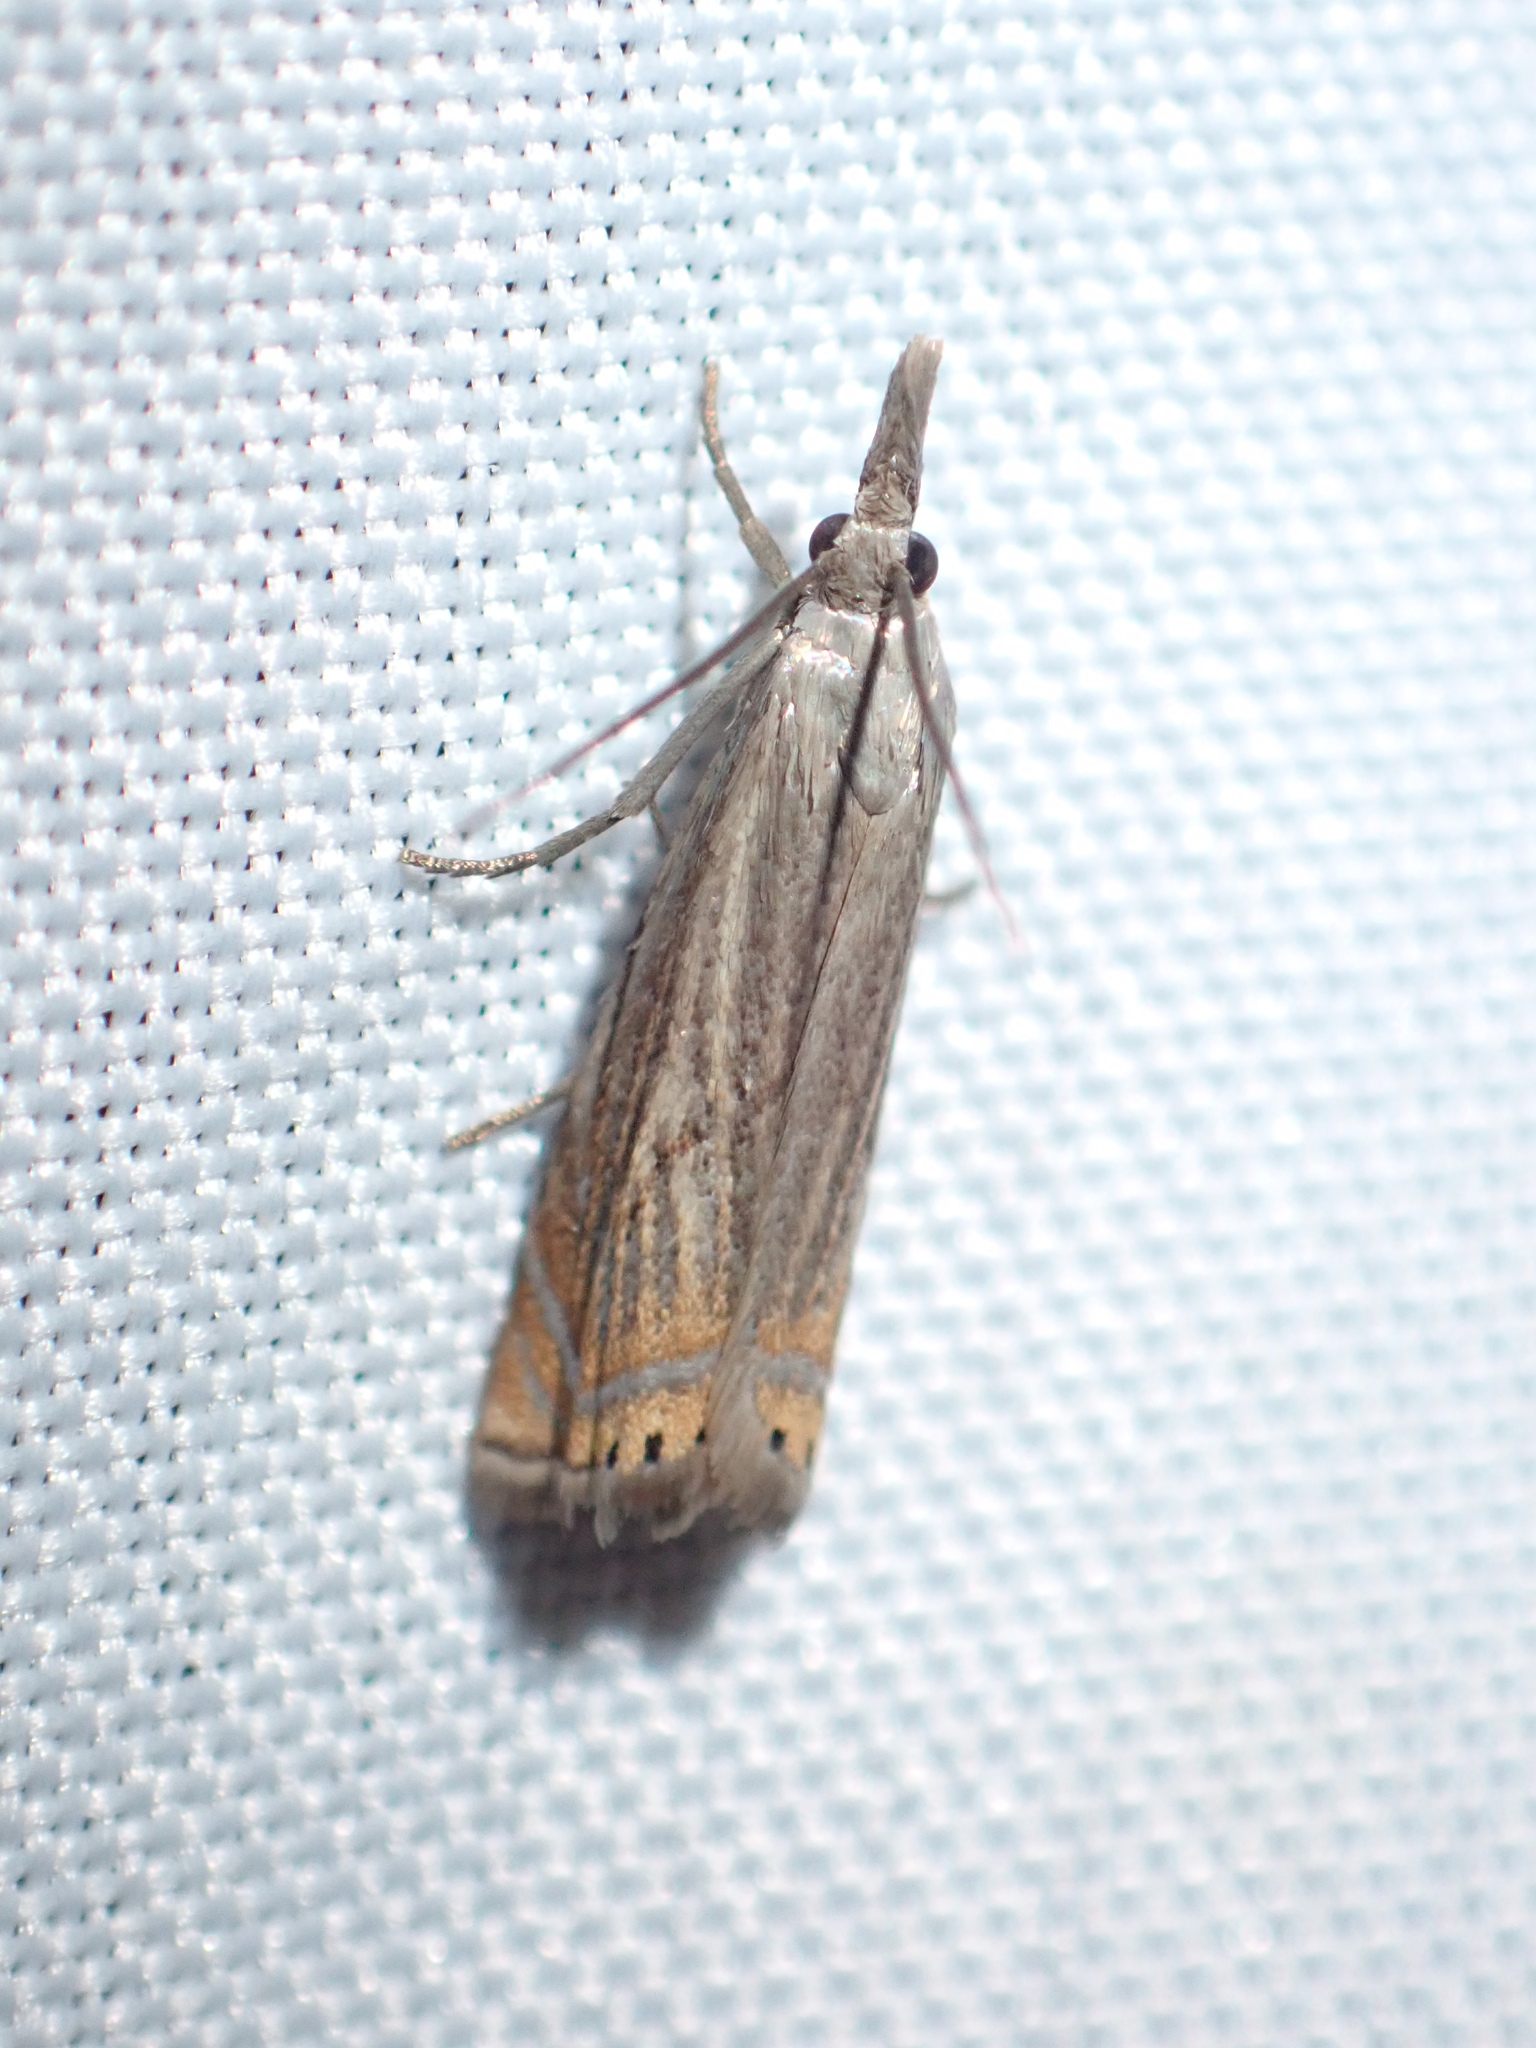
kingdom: Animalia
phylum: Arthropoda
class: Insecta
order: Lepidoptera
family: Crambidae
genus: Chrysoteuchia
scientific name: Chrysoteuchia topiarius
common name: Topiary grass-veneer
